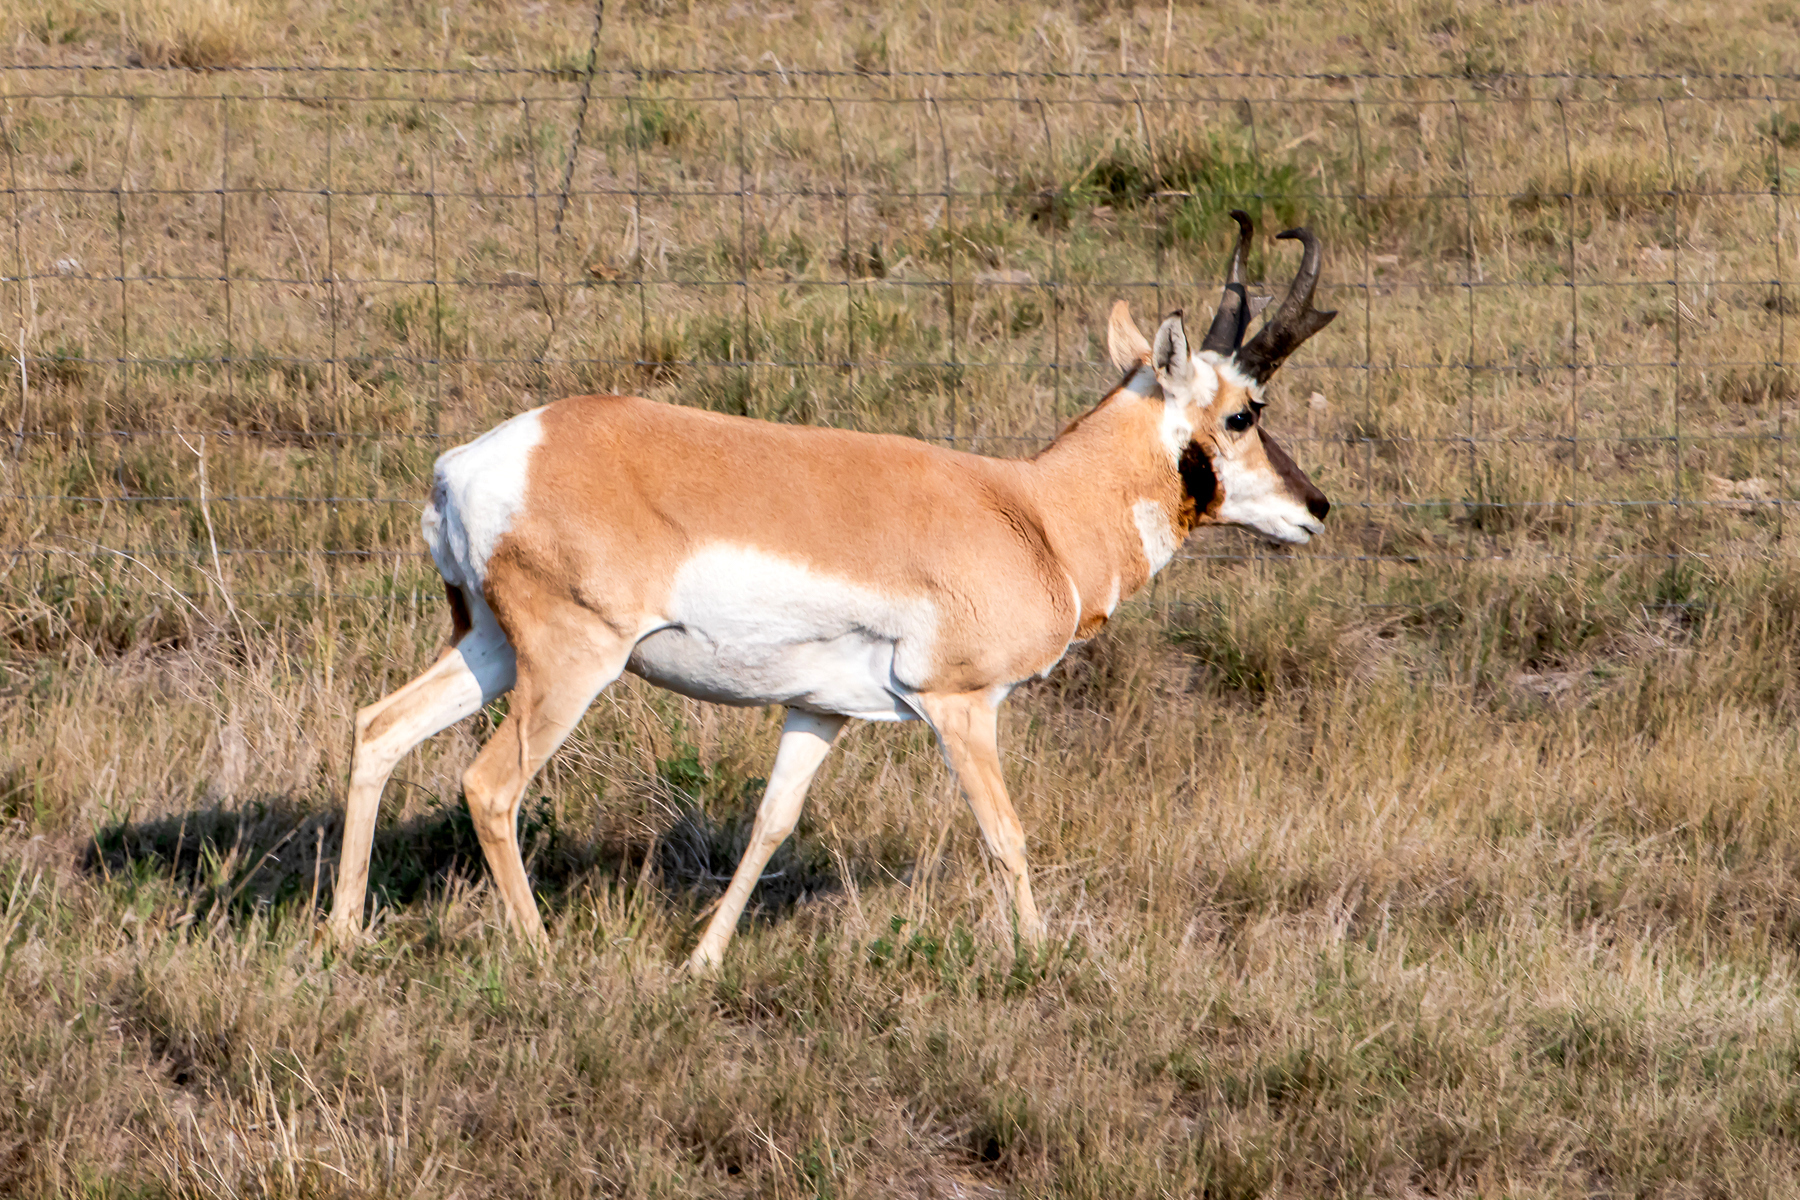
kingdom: Animalia
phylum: Chordata
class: Mammalia
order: Artiodactyla
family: Antilocapridae
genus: Antilocapra
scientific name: Antilocapra americana
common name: Pronghorn
